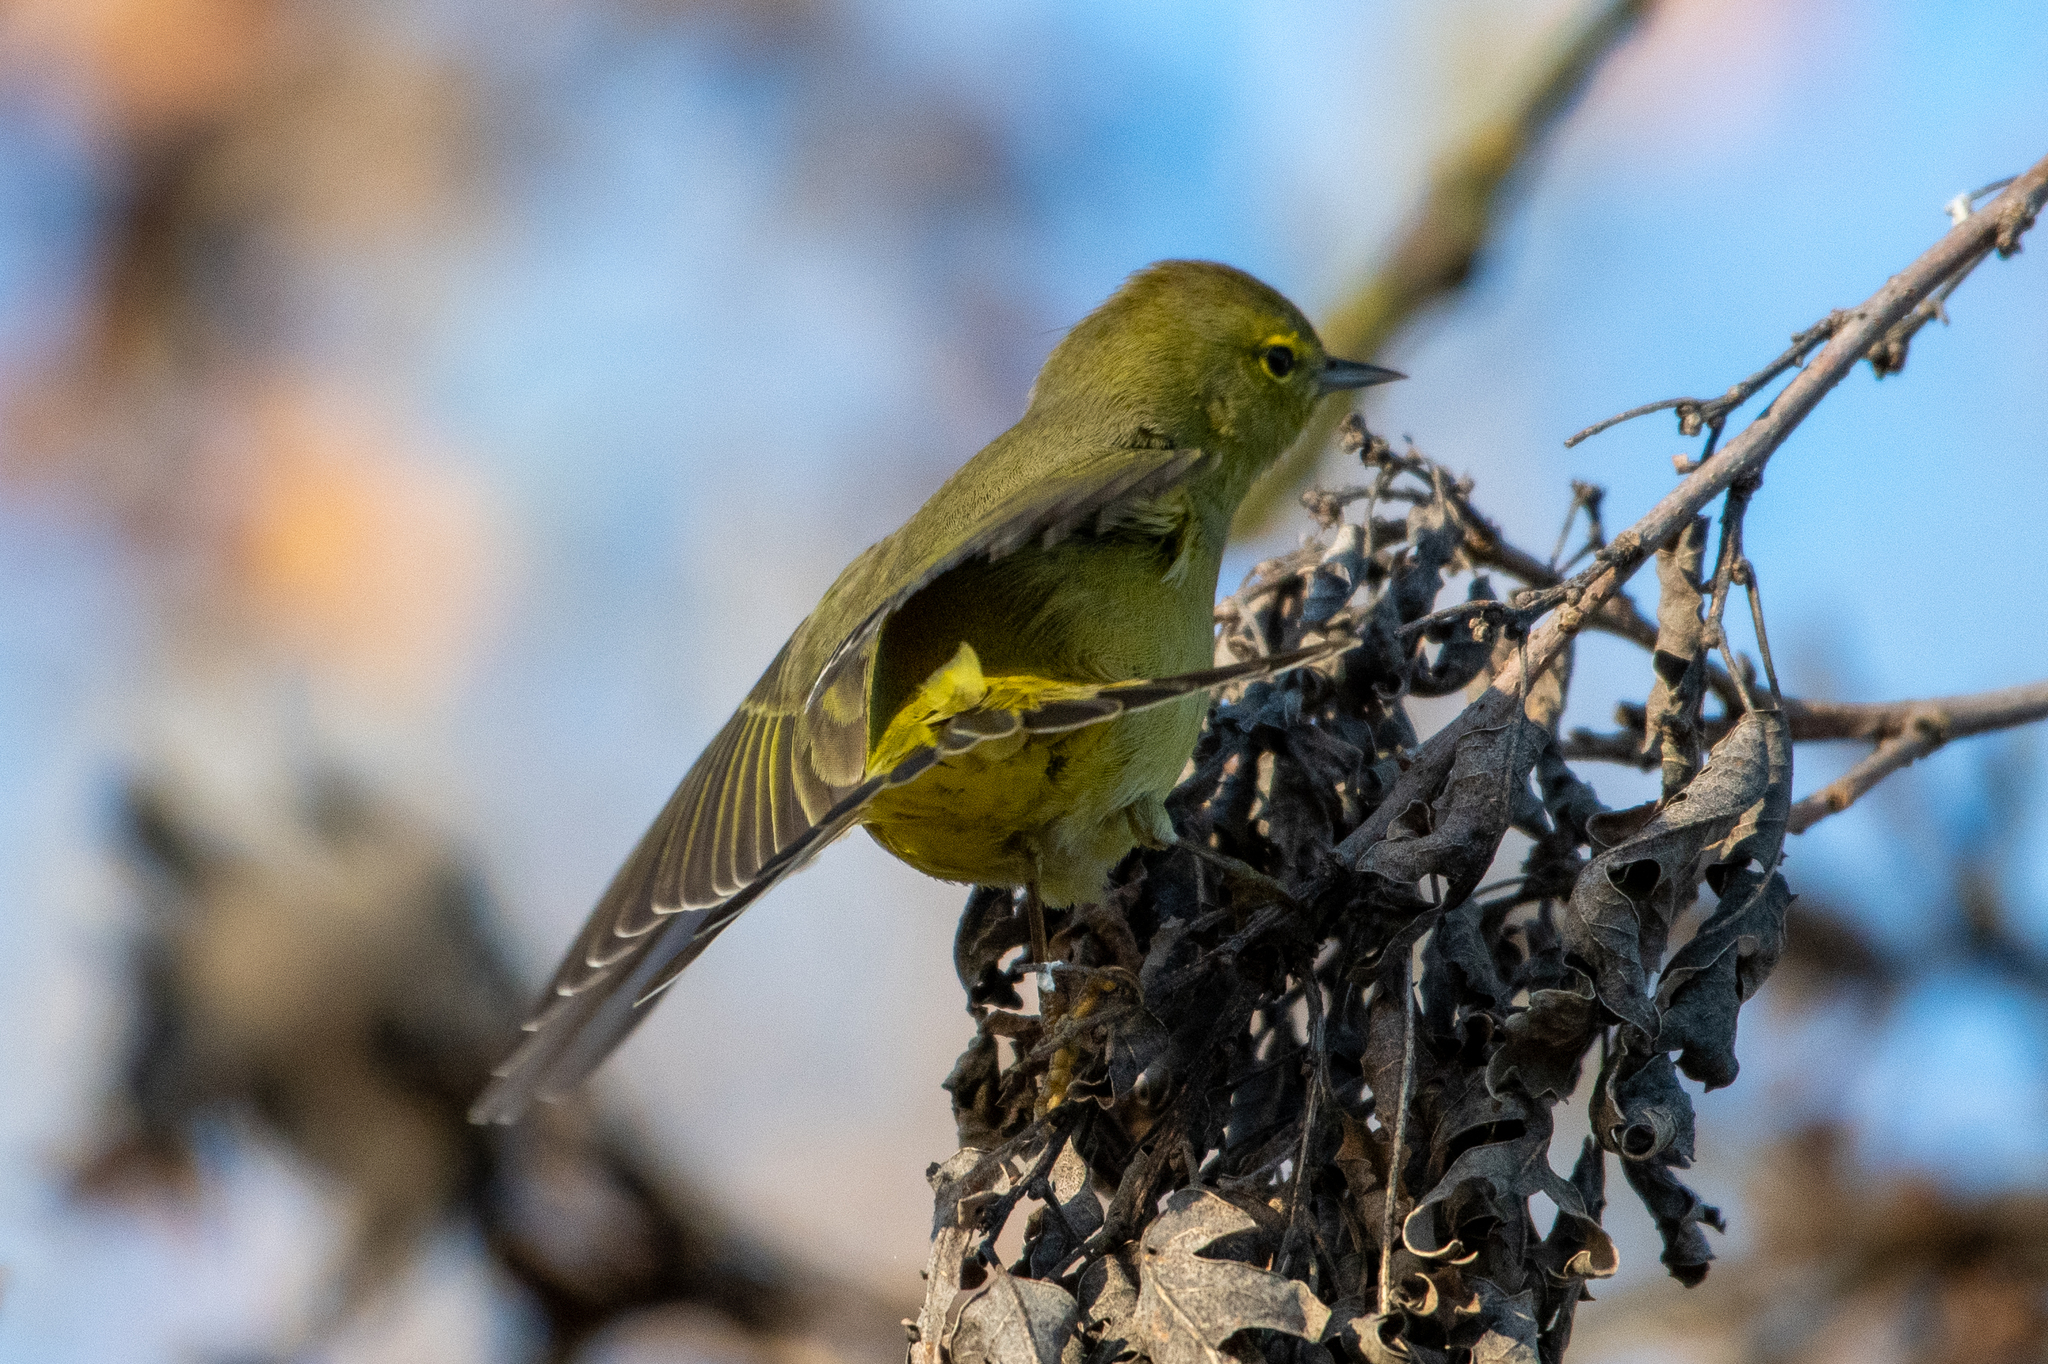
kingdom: Animalia
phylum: Chordata
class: Aves
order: Passeriformes
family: Parulidae
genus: Leiothlypis
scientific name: Leiothlypis celata
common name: Orange-crowned warbler
